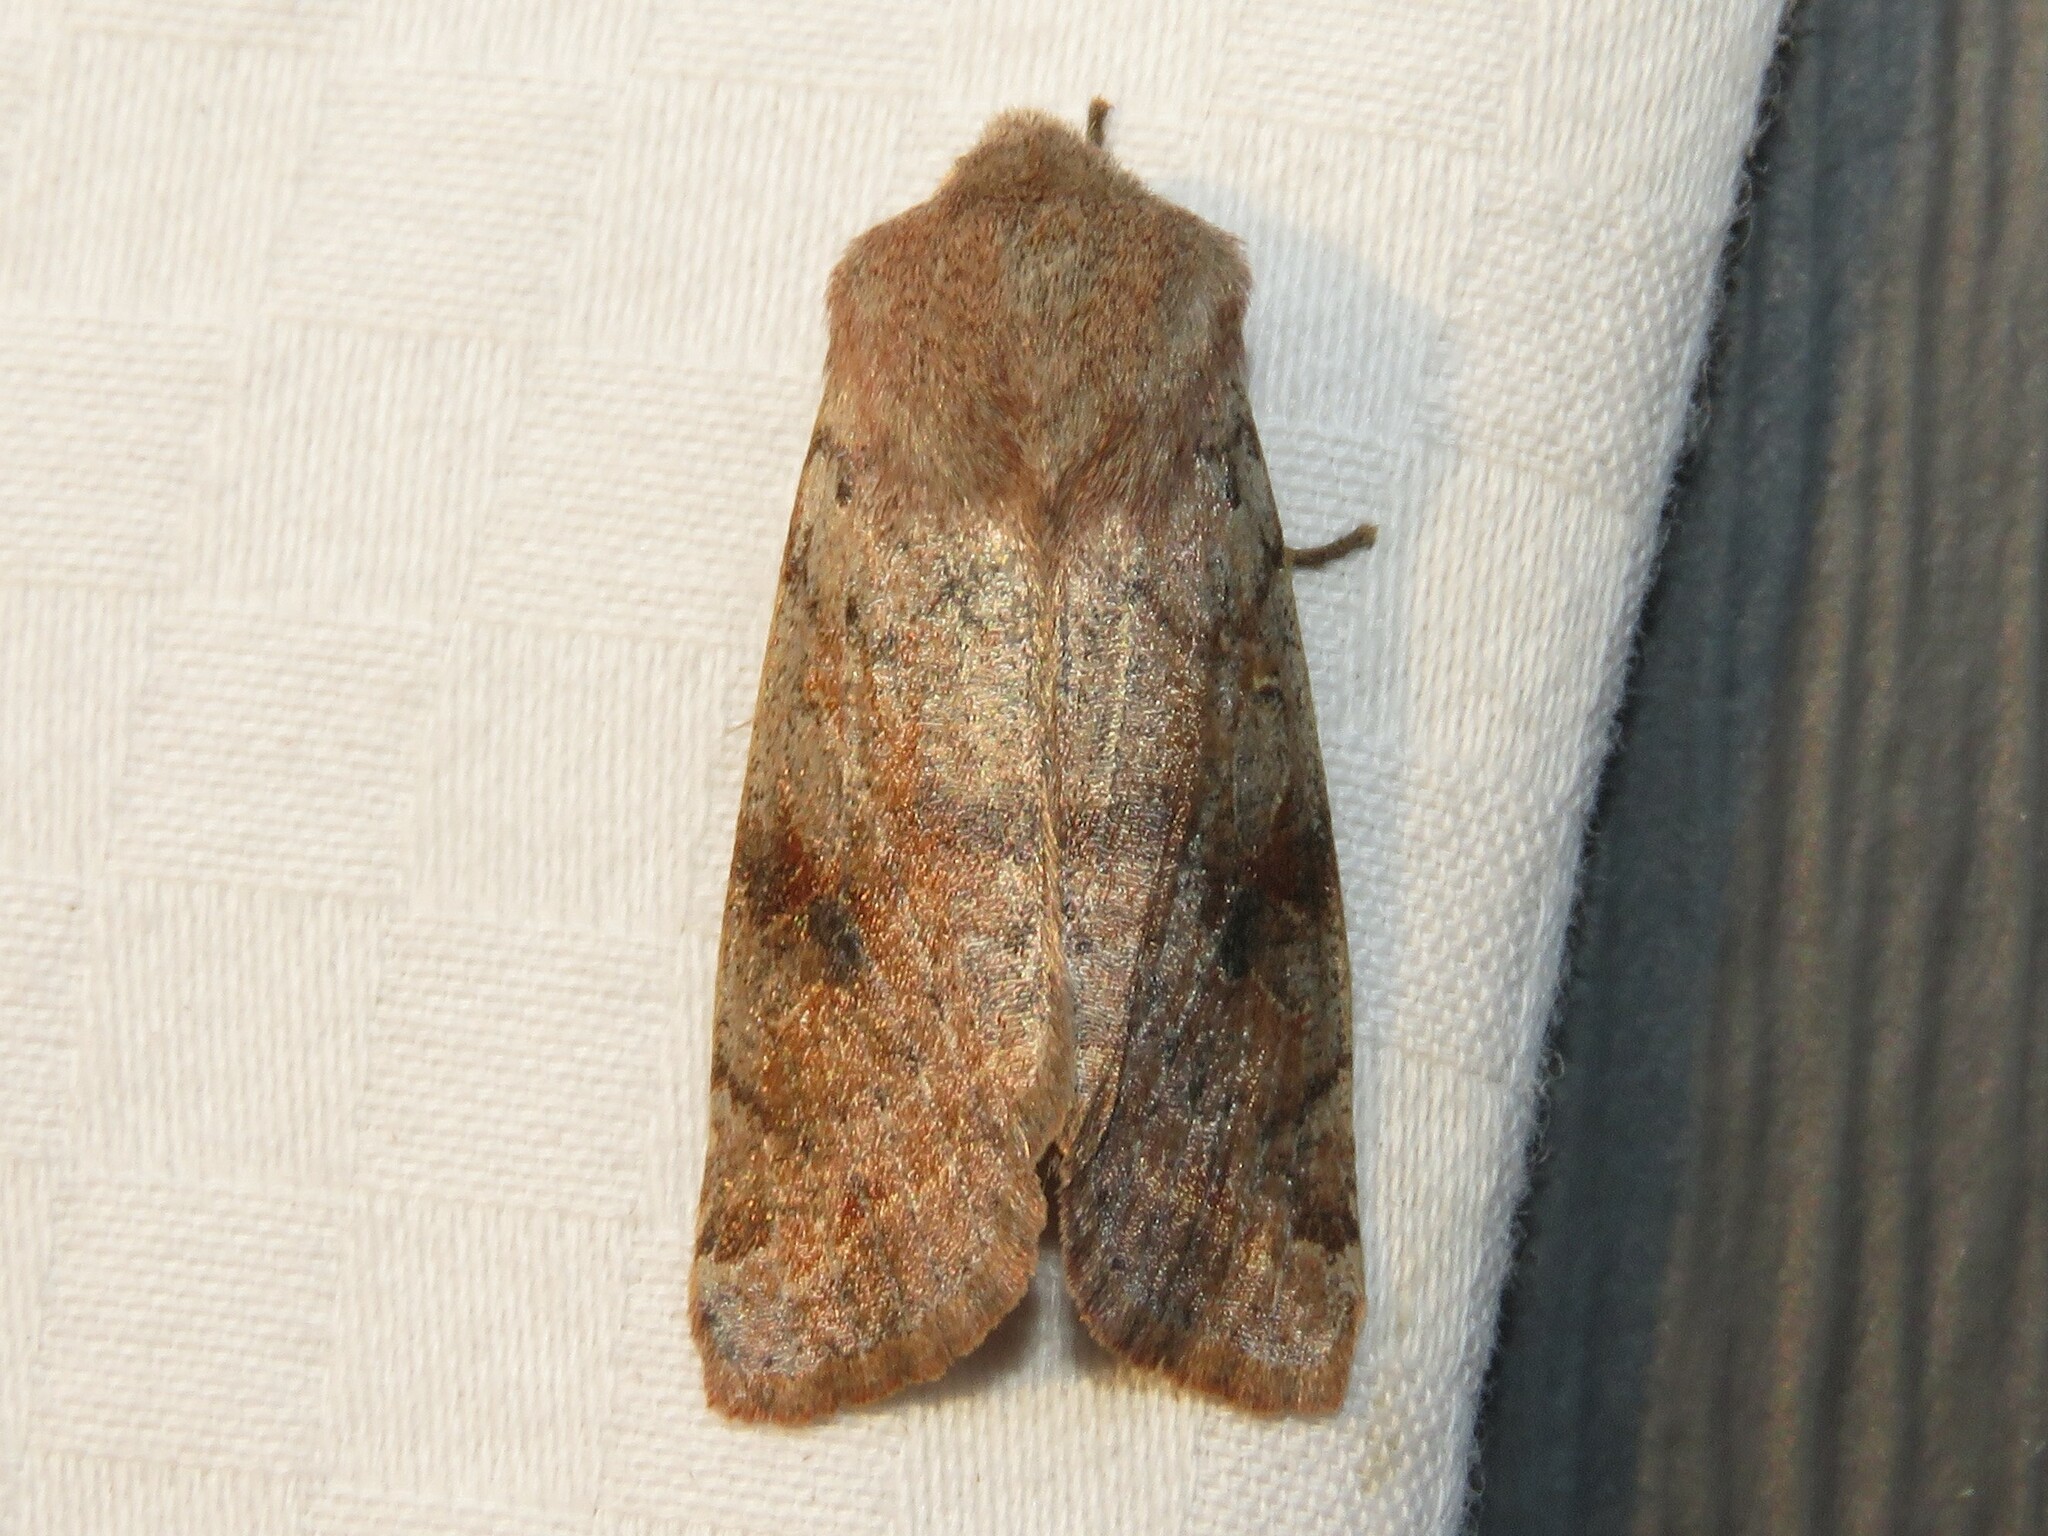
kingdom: Animalia
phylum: Arthropoda
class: Insecta
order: Lepidoptera
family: Noctuidae
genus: Orthosia
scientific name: Orthosia hibisci
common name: Green fruitworm
